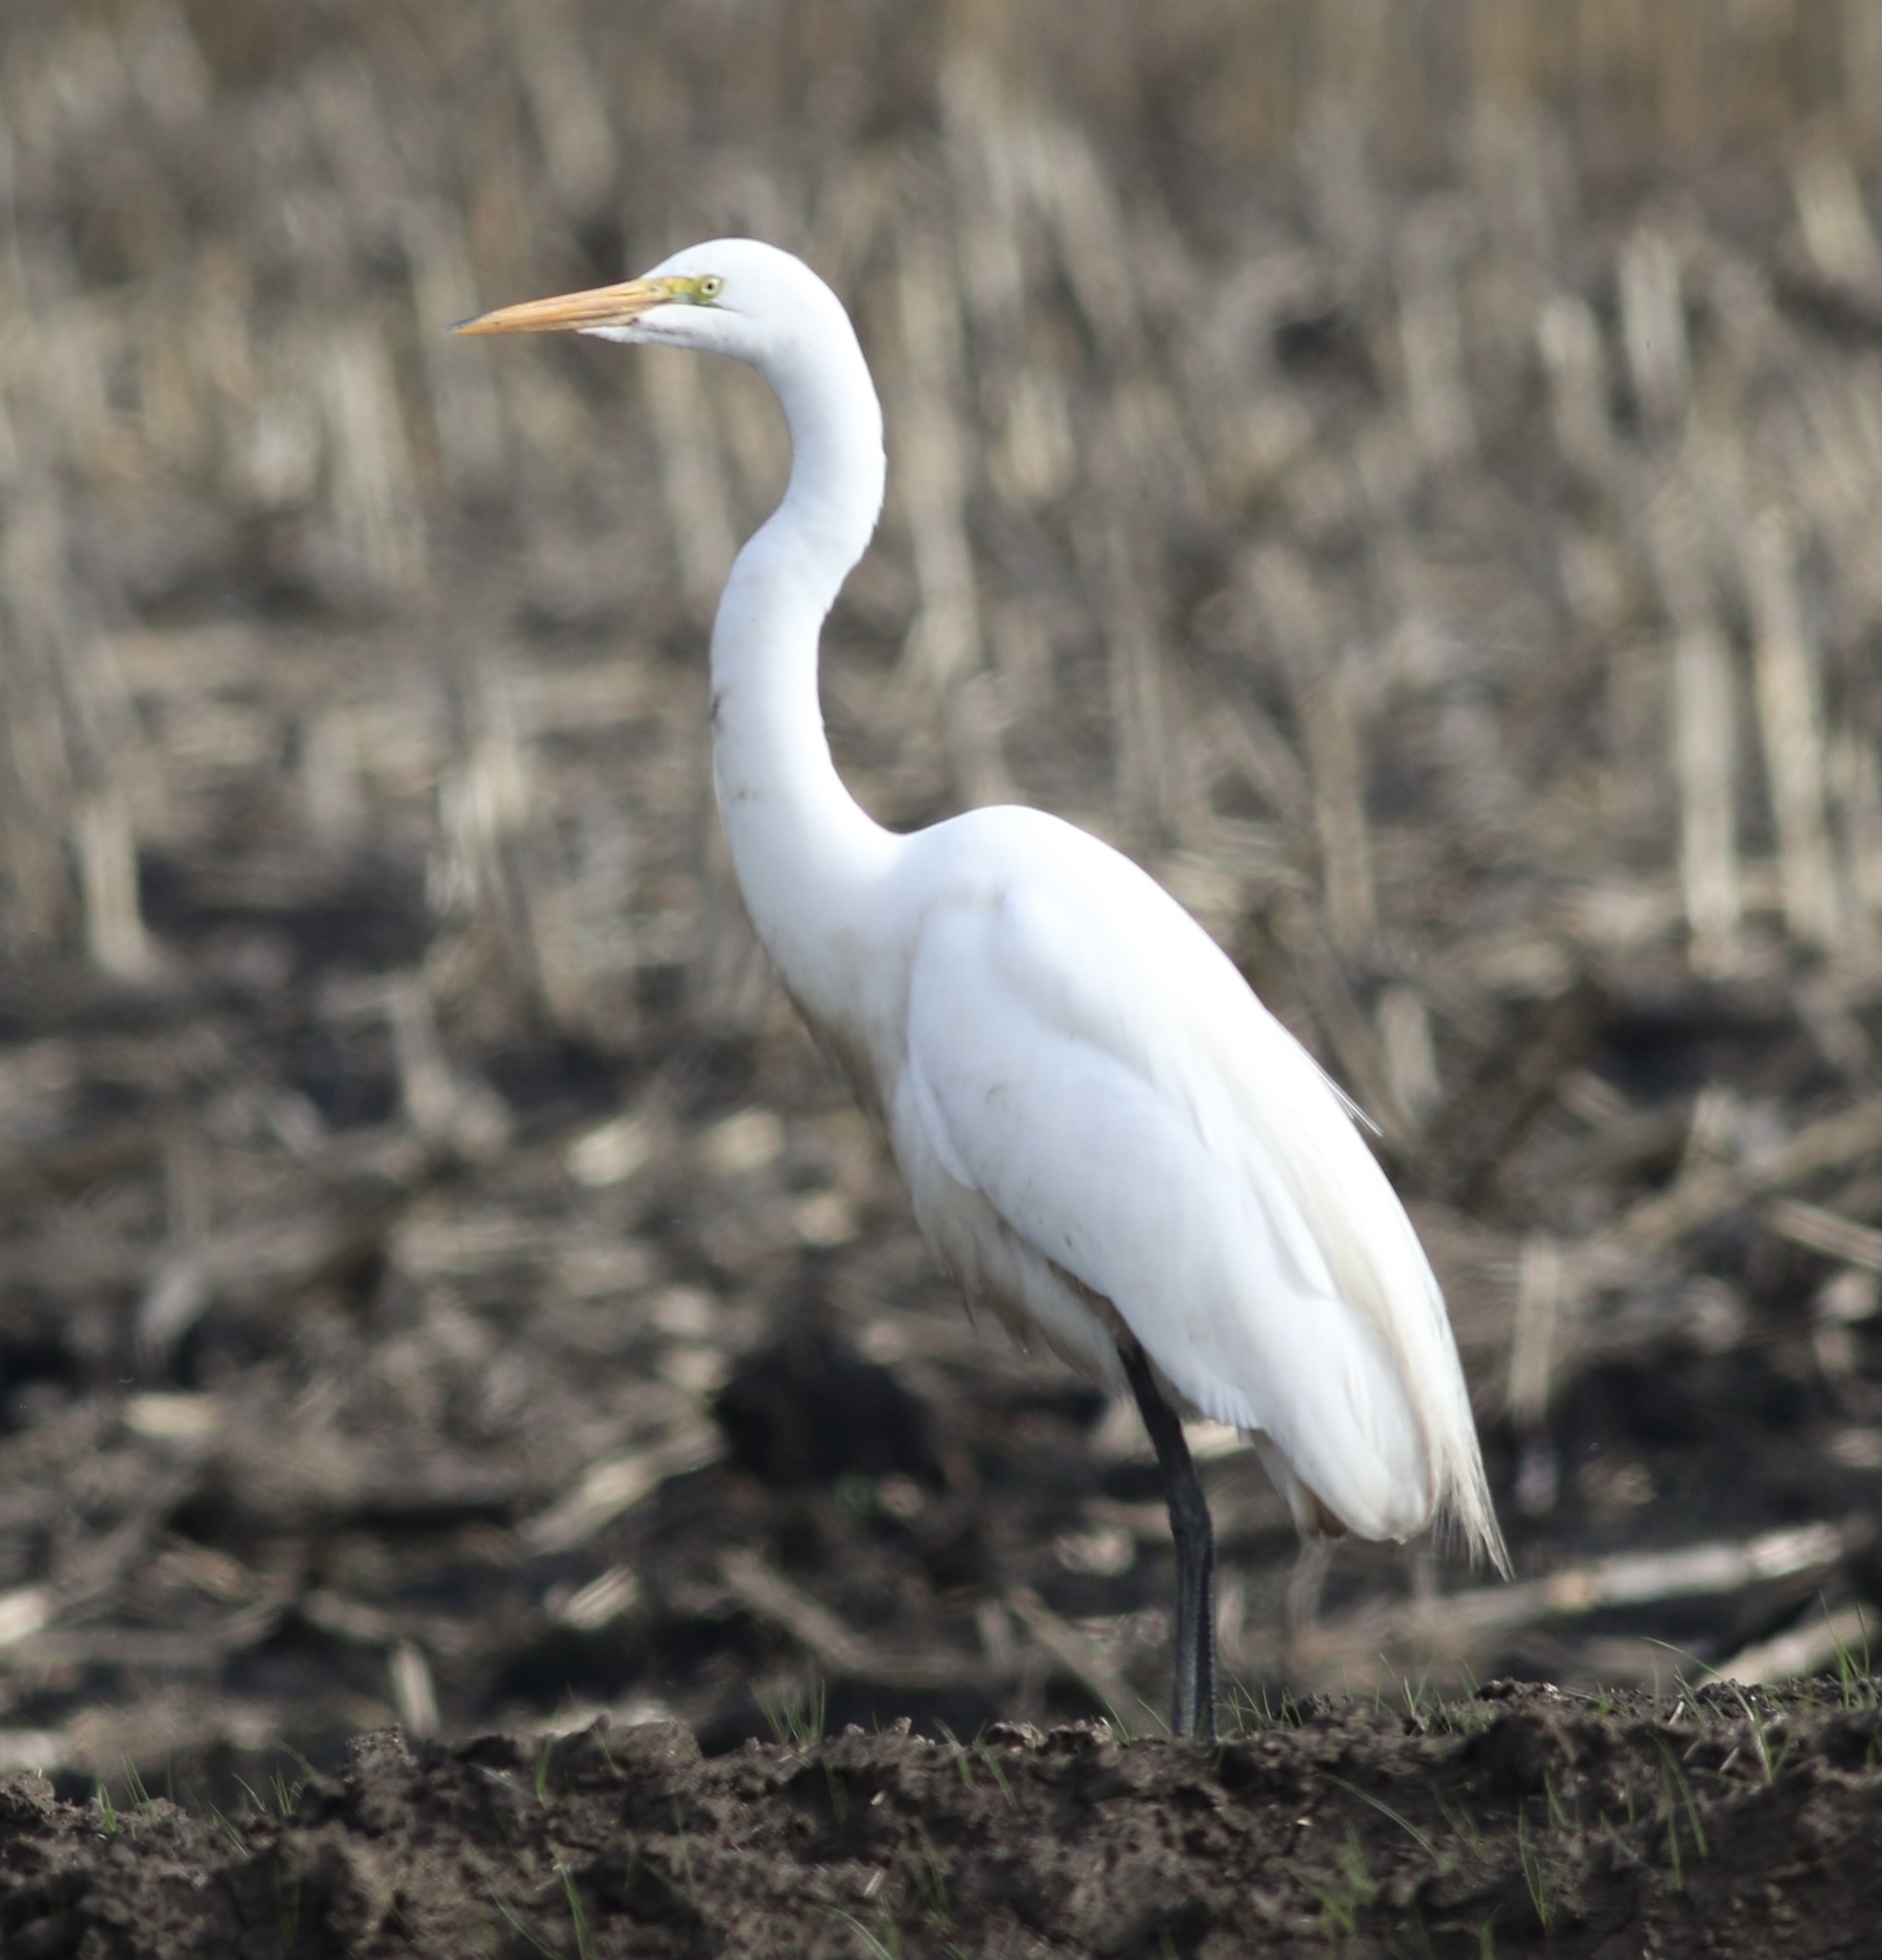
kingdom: Animalia
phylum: Chordata
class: Aves
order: Pelecaniformes
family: Ardeidae
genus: Ardea
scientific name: Ardea alba
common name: Great egret
